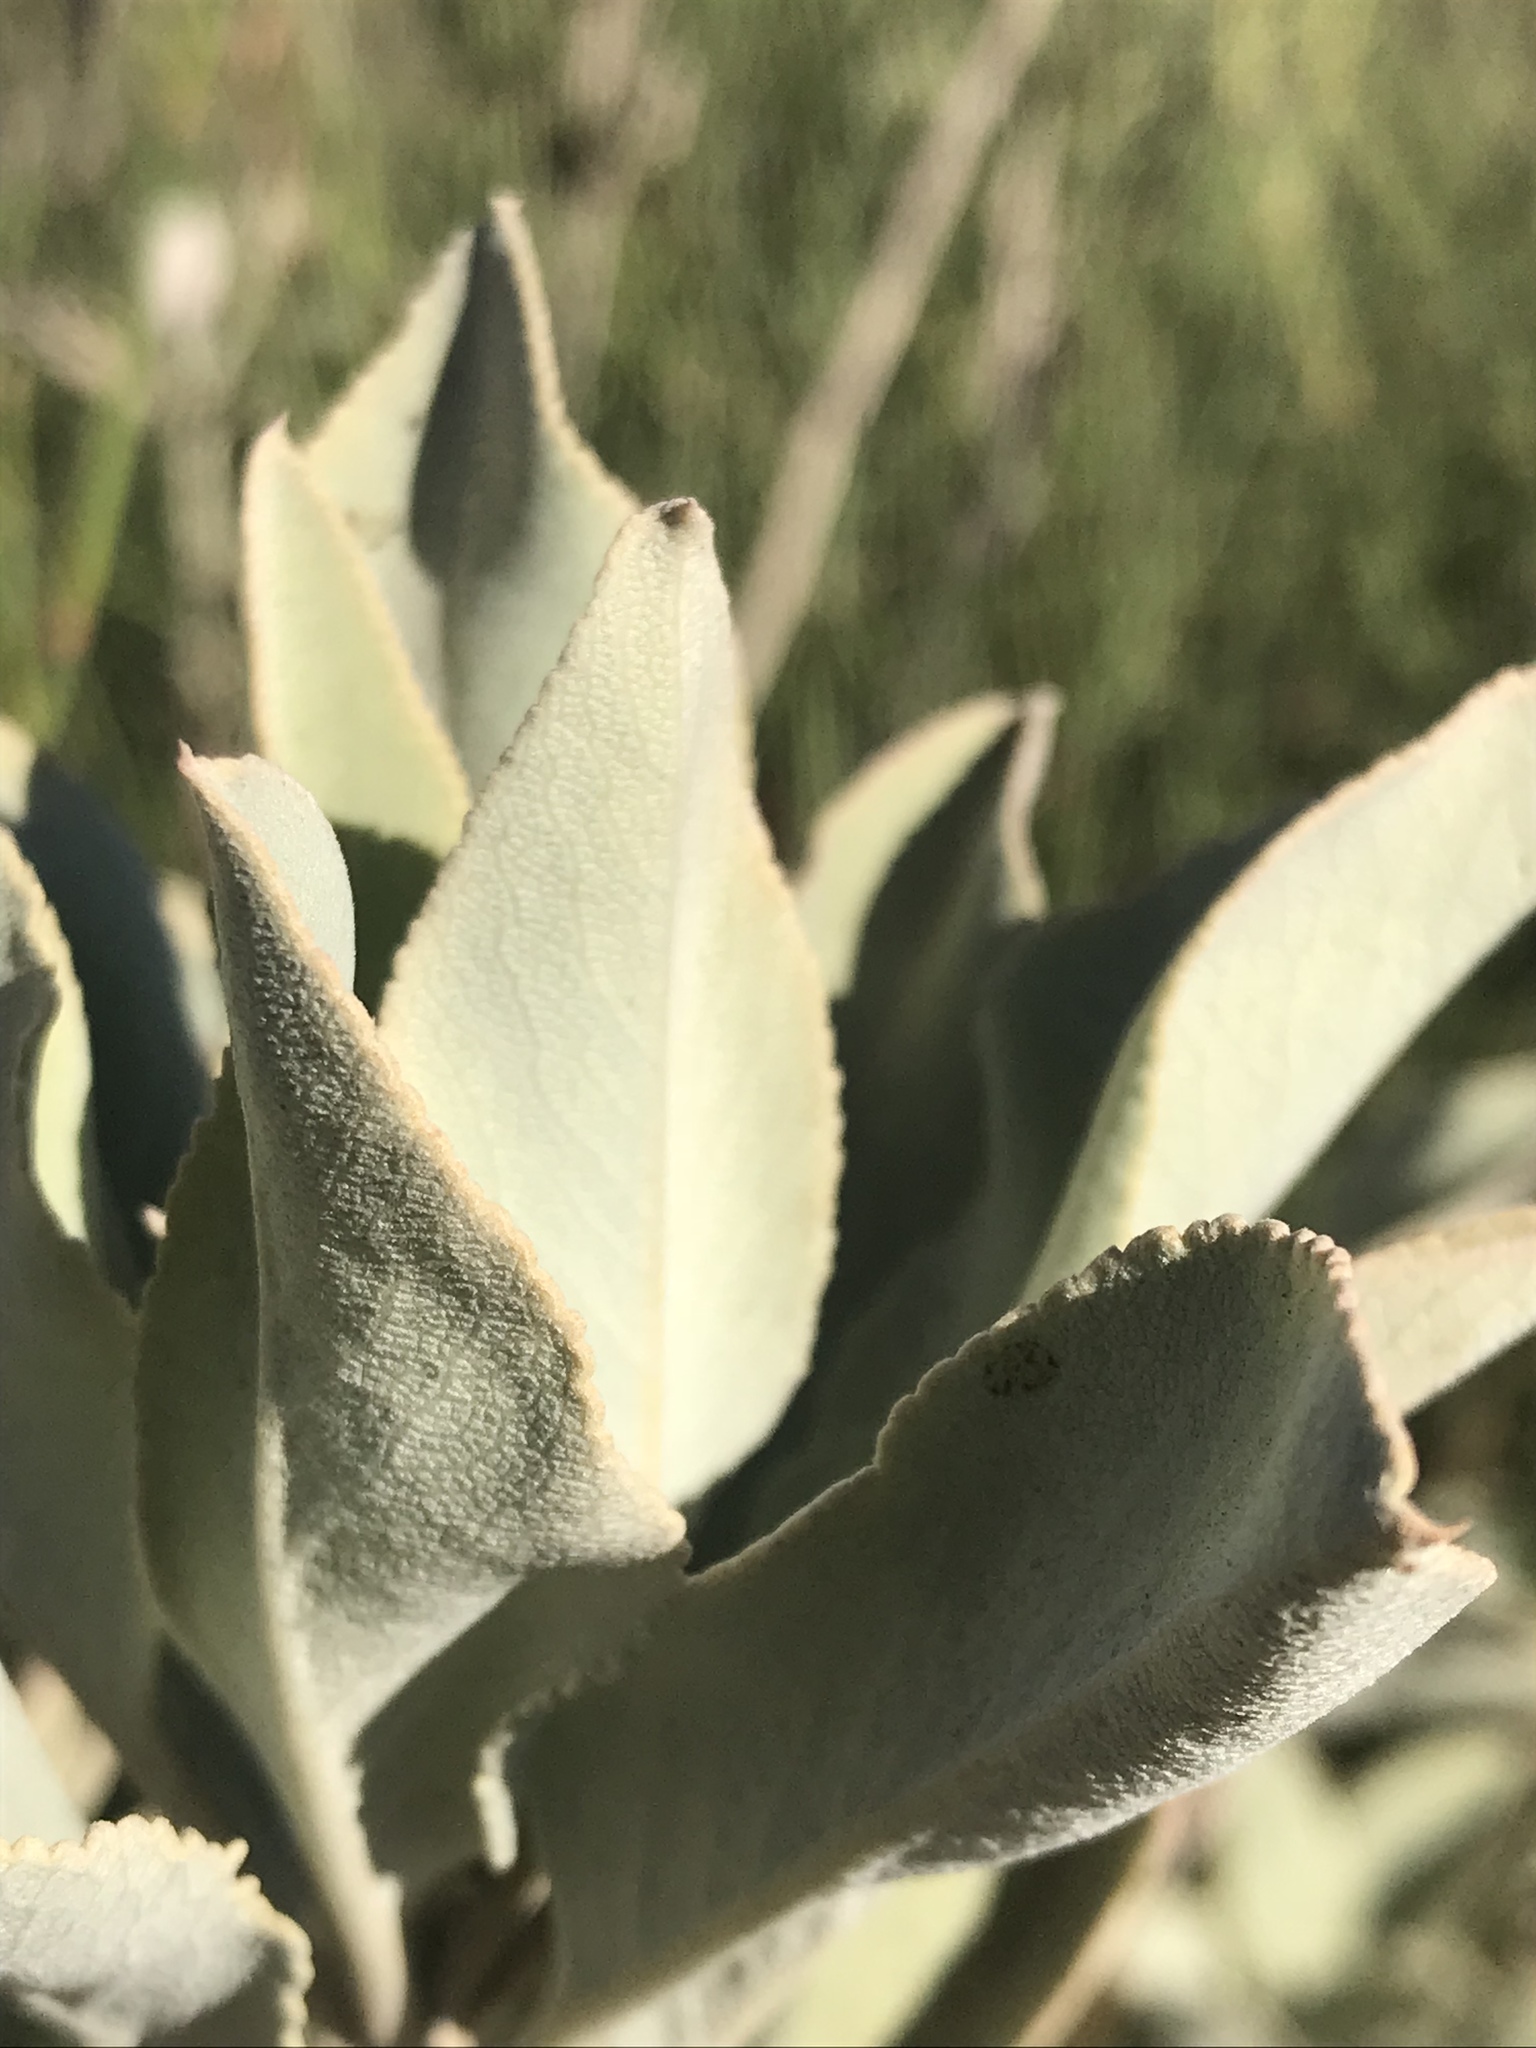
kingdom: Plantae
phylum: Tracheophyta
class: Magnoliopsida
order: Lamiales
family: Lamiaceae
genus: Salvia
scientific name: Salvia apiana
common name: White sage
